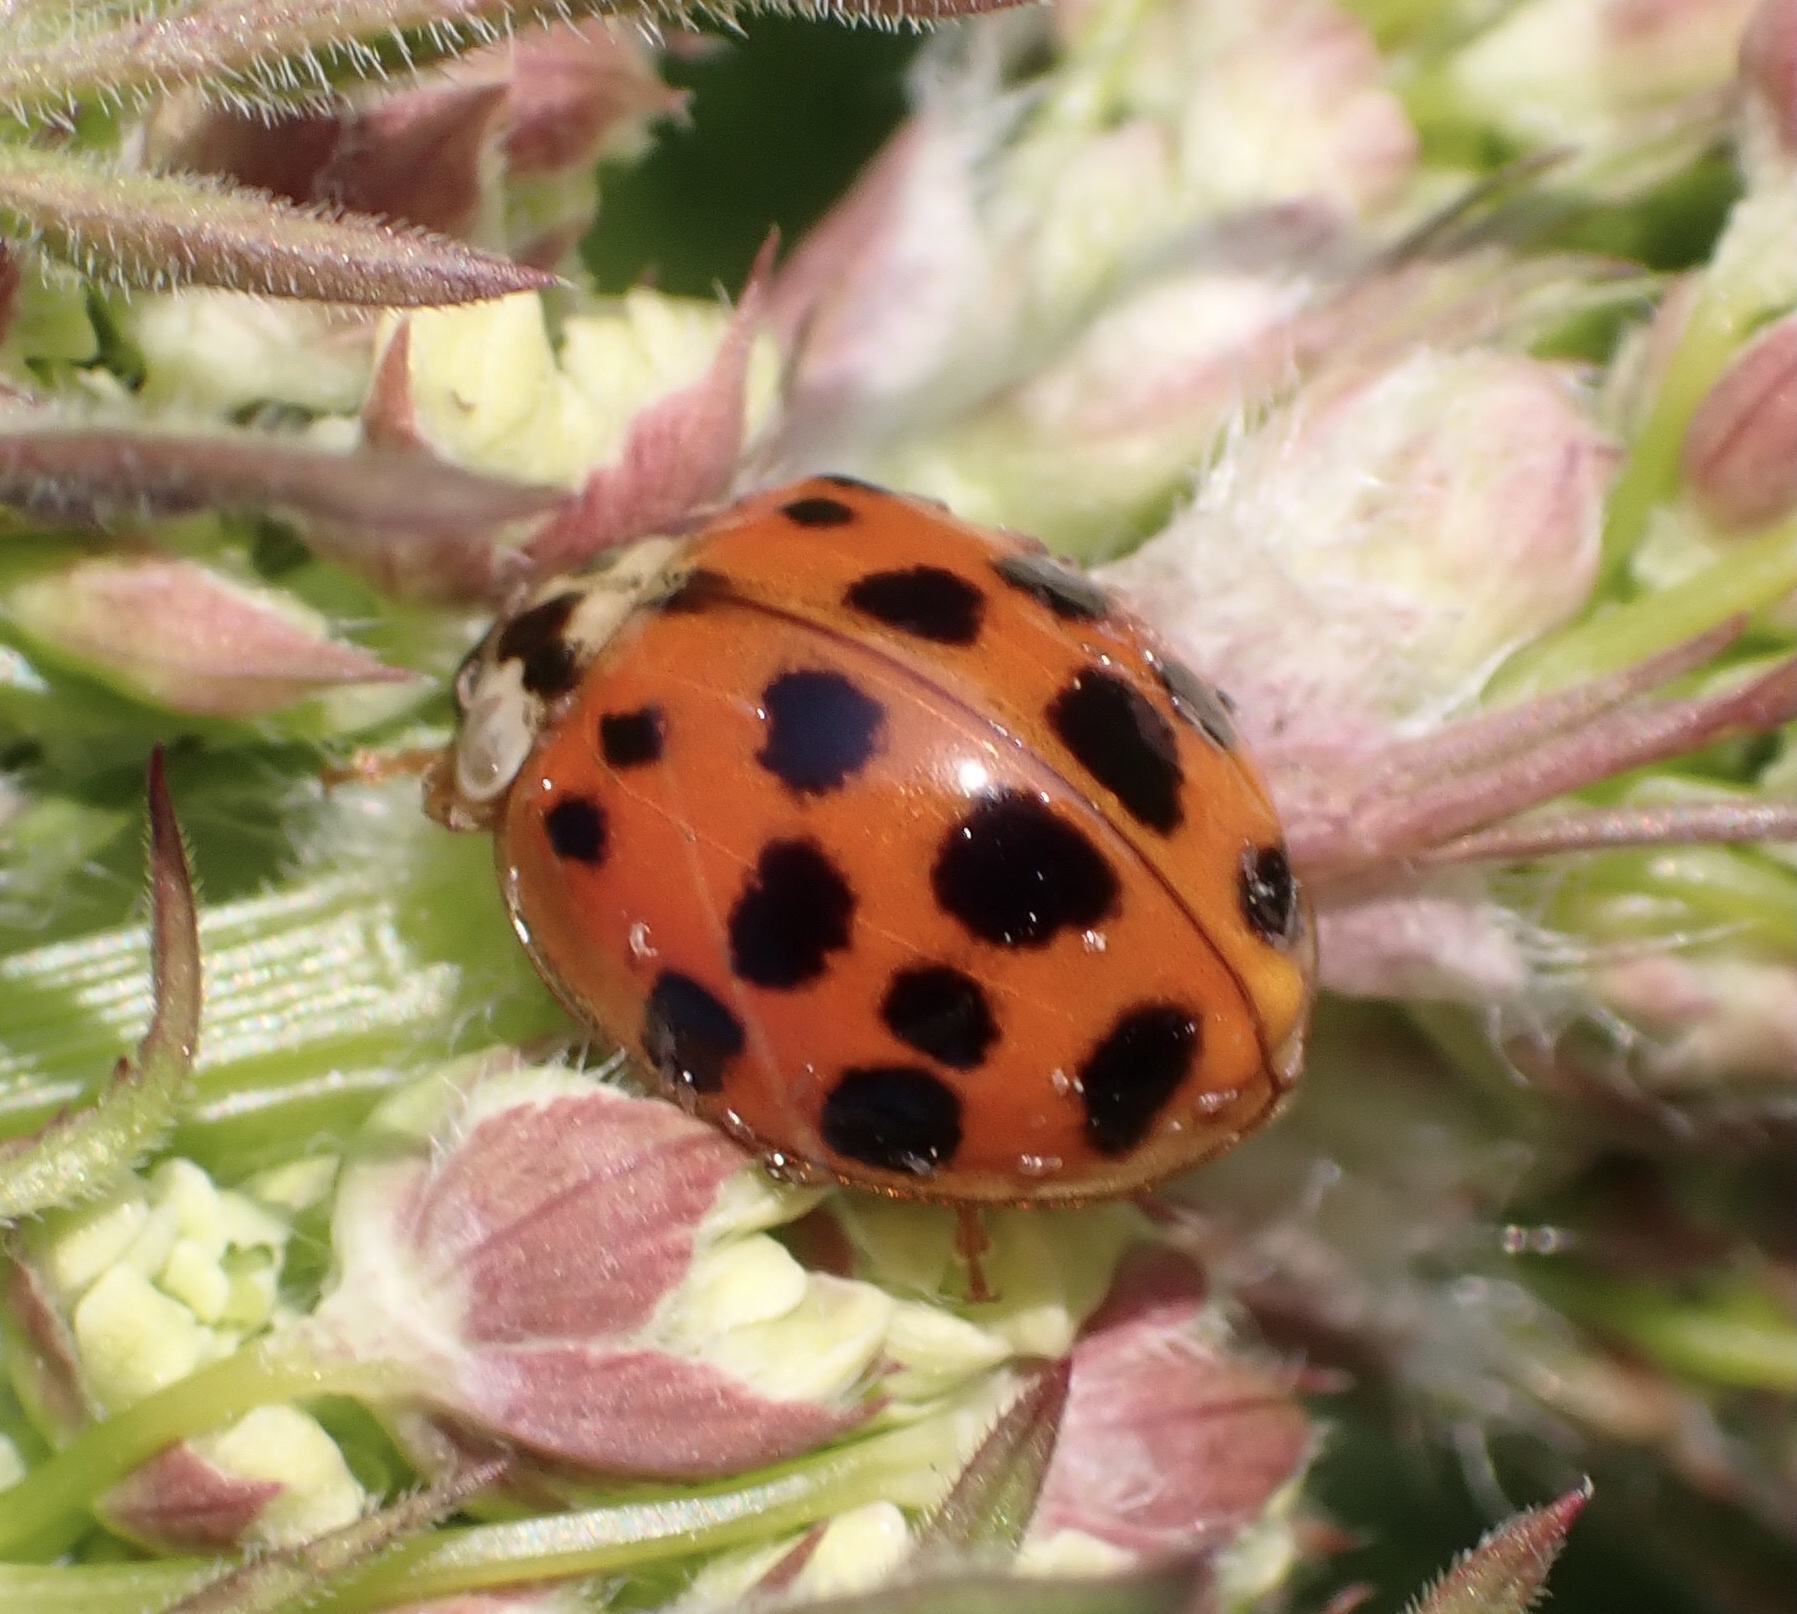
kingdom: Animalia
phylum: Arthropoda
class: Insecta
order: Coleoptera
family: Coccinellidae
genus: Harmonia
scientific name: Harmonia axyridis
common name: Harlequin ladybird
